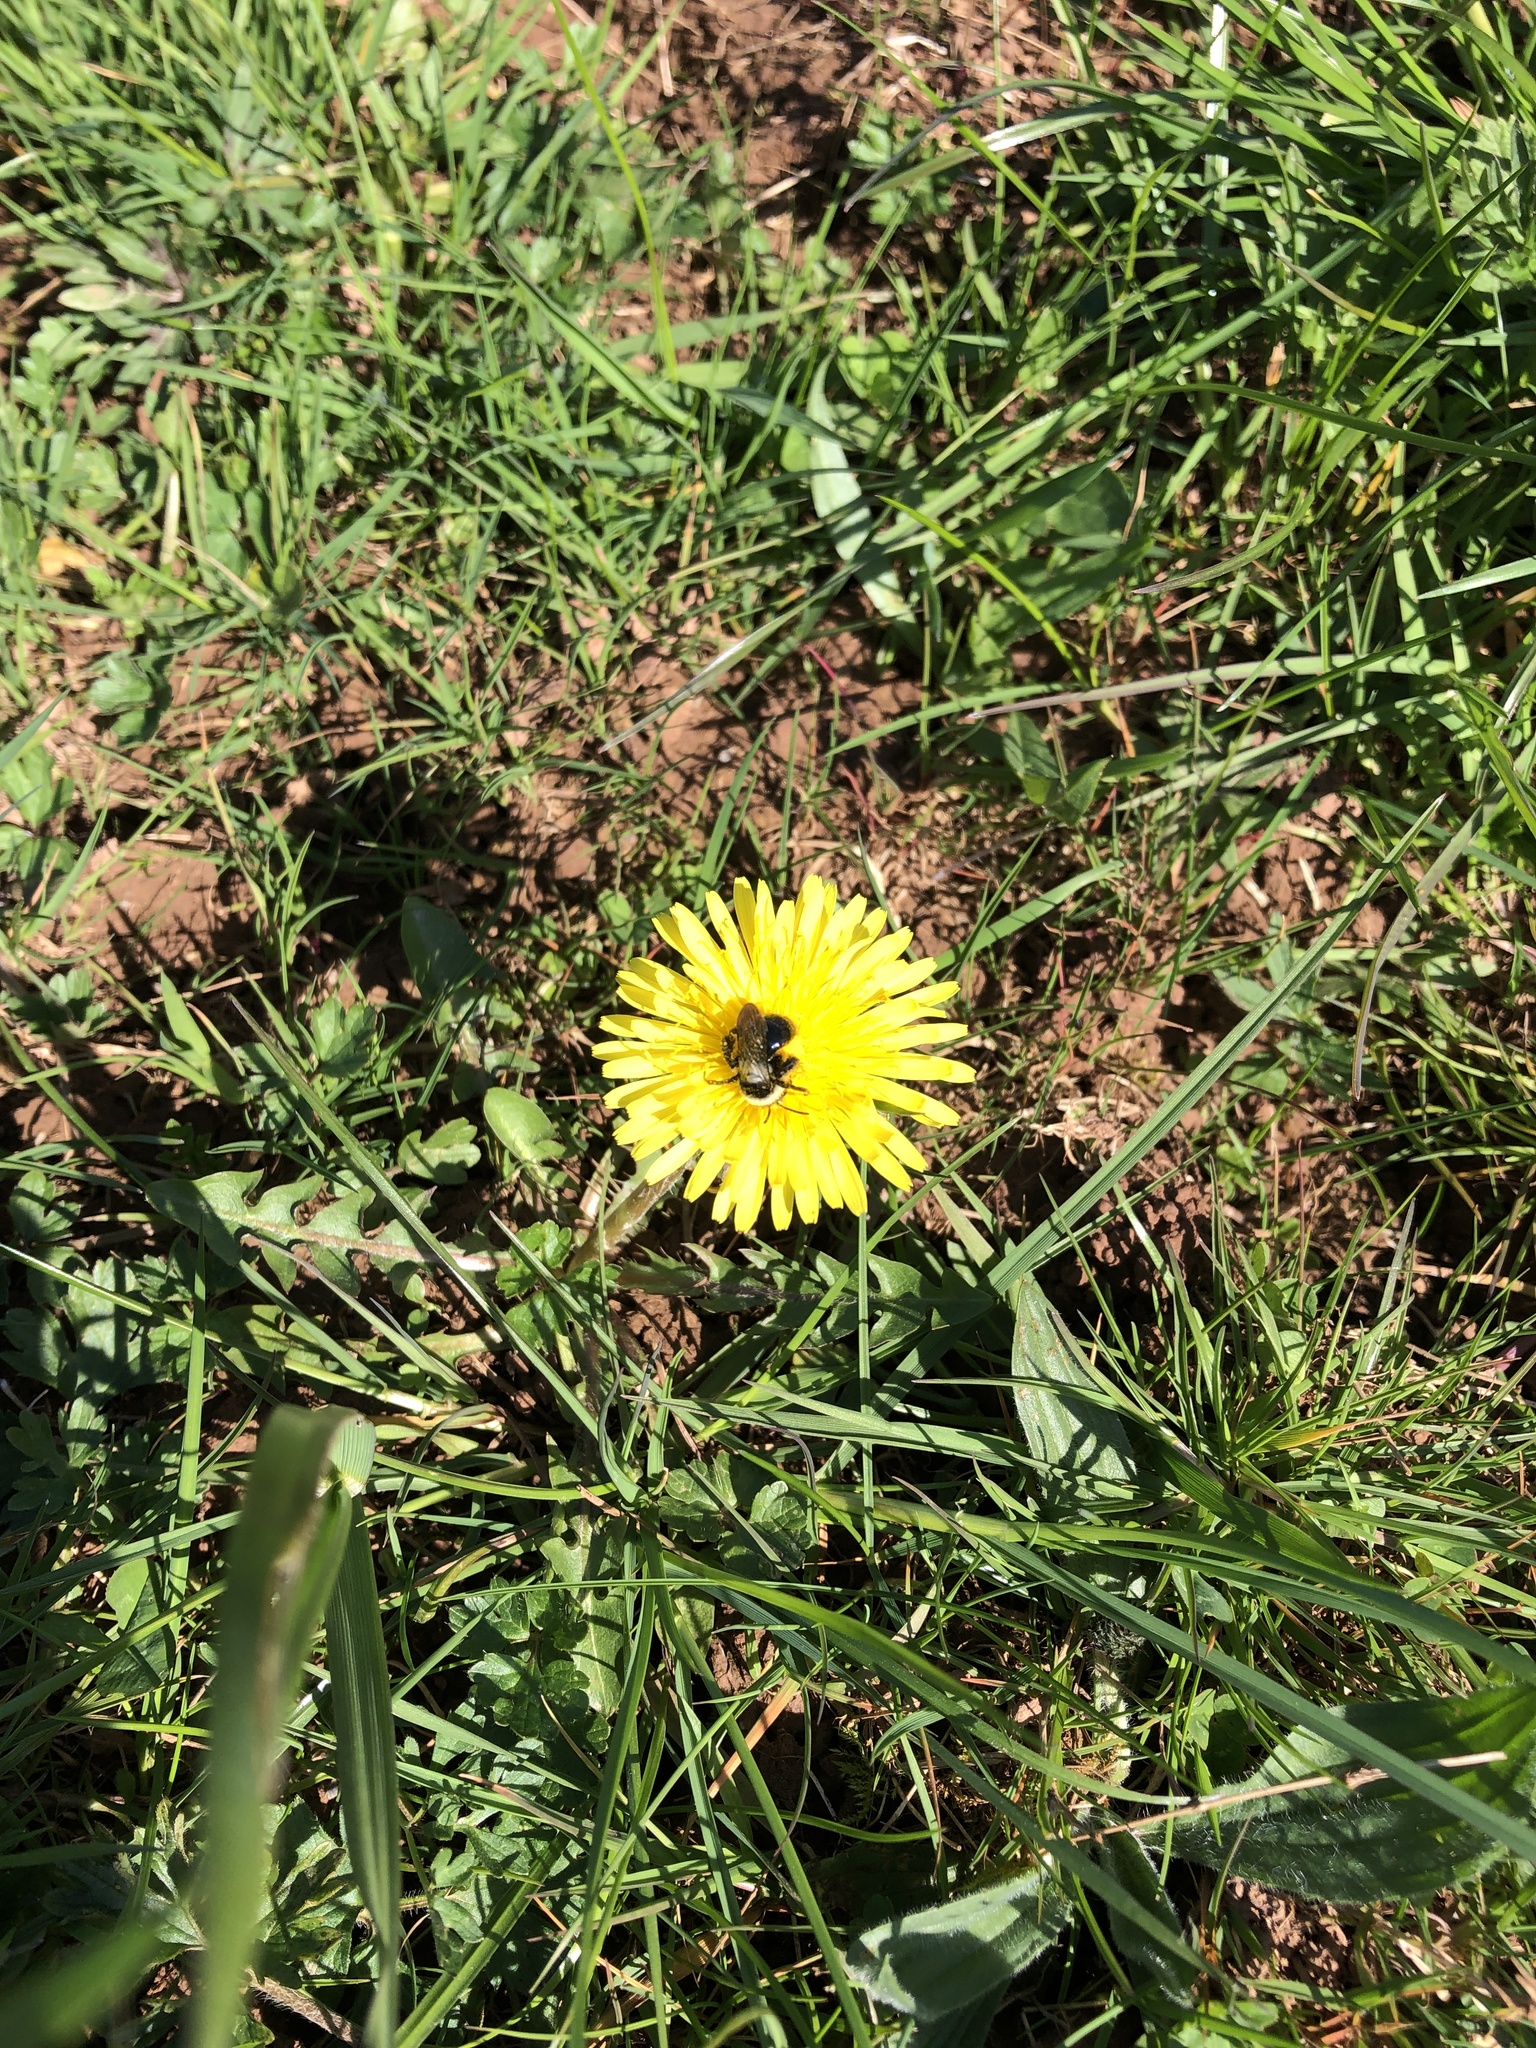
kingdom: Animalia
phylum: Arthropoda
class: Insecta
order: Hymenoptera
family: Andrenidae
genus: Andrena
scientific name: Andrena cineraria
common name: Ashy mining bee
